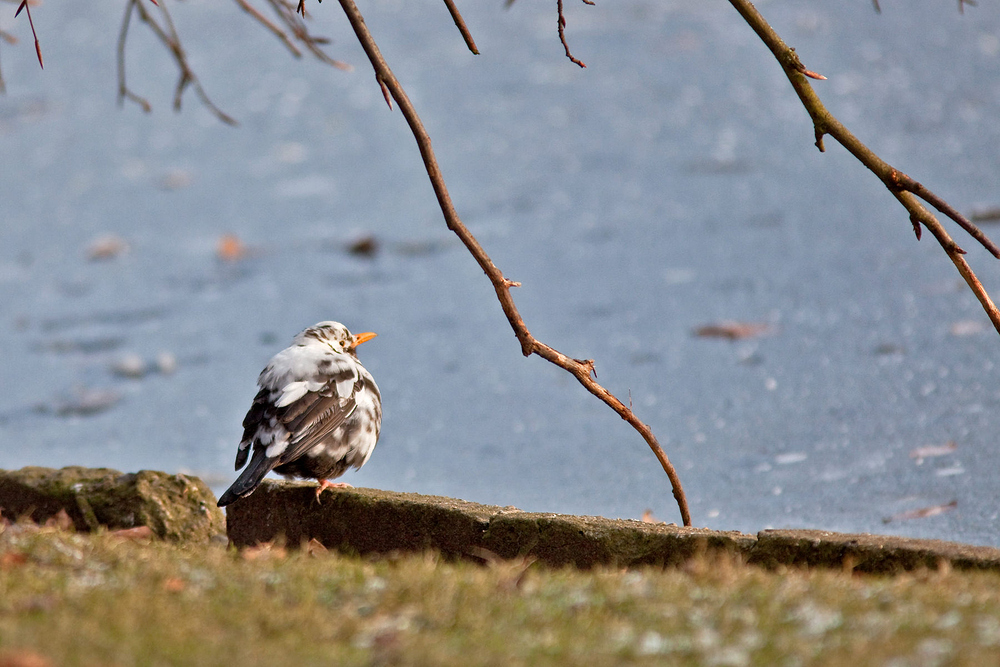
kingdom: Animalia
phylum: Chordata
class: Aves
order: Passeriformes
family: Turdidae
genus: Turdus
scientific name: Turdus merula
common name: Common blackbird
